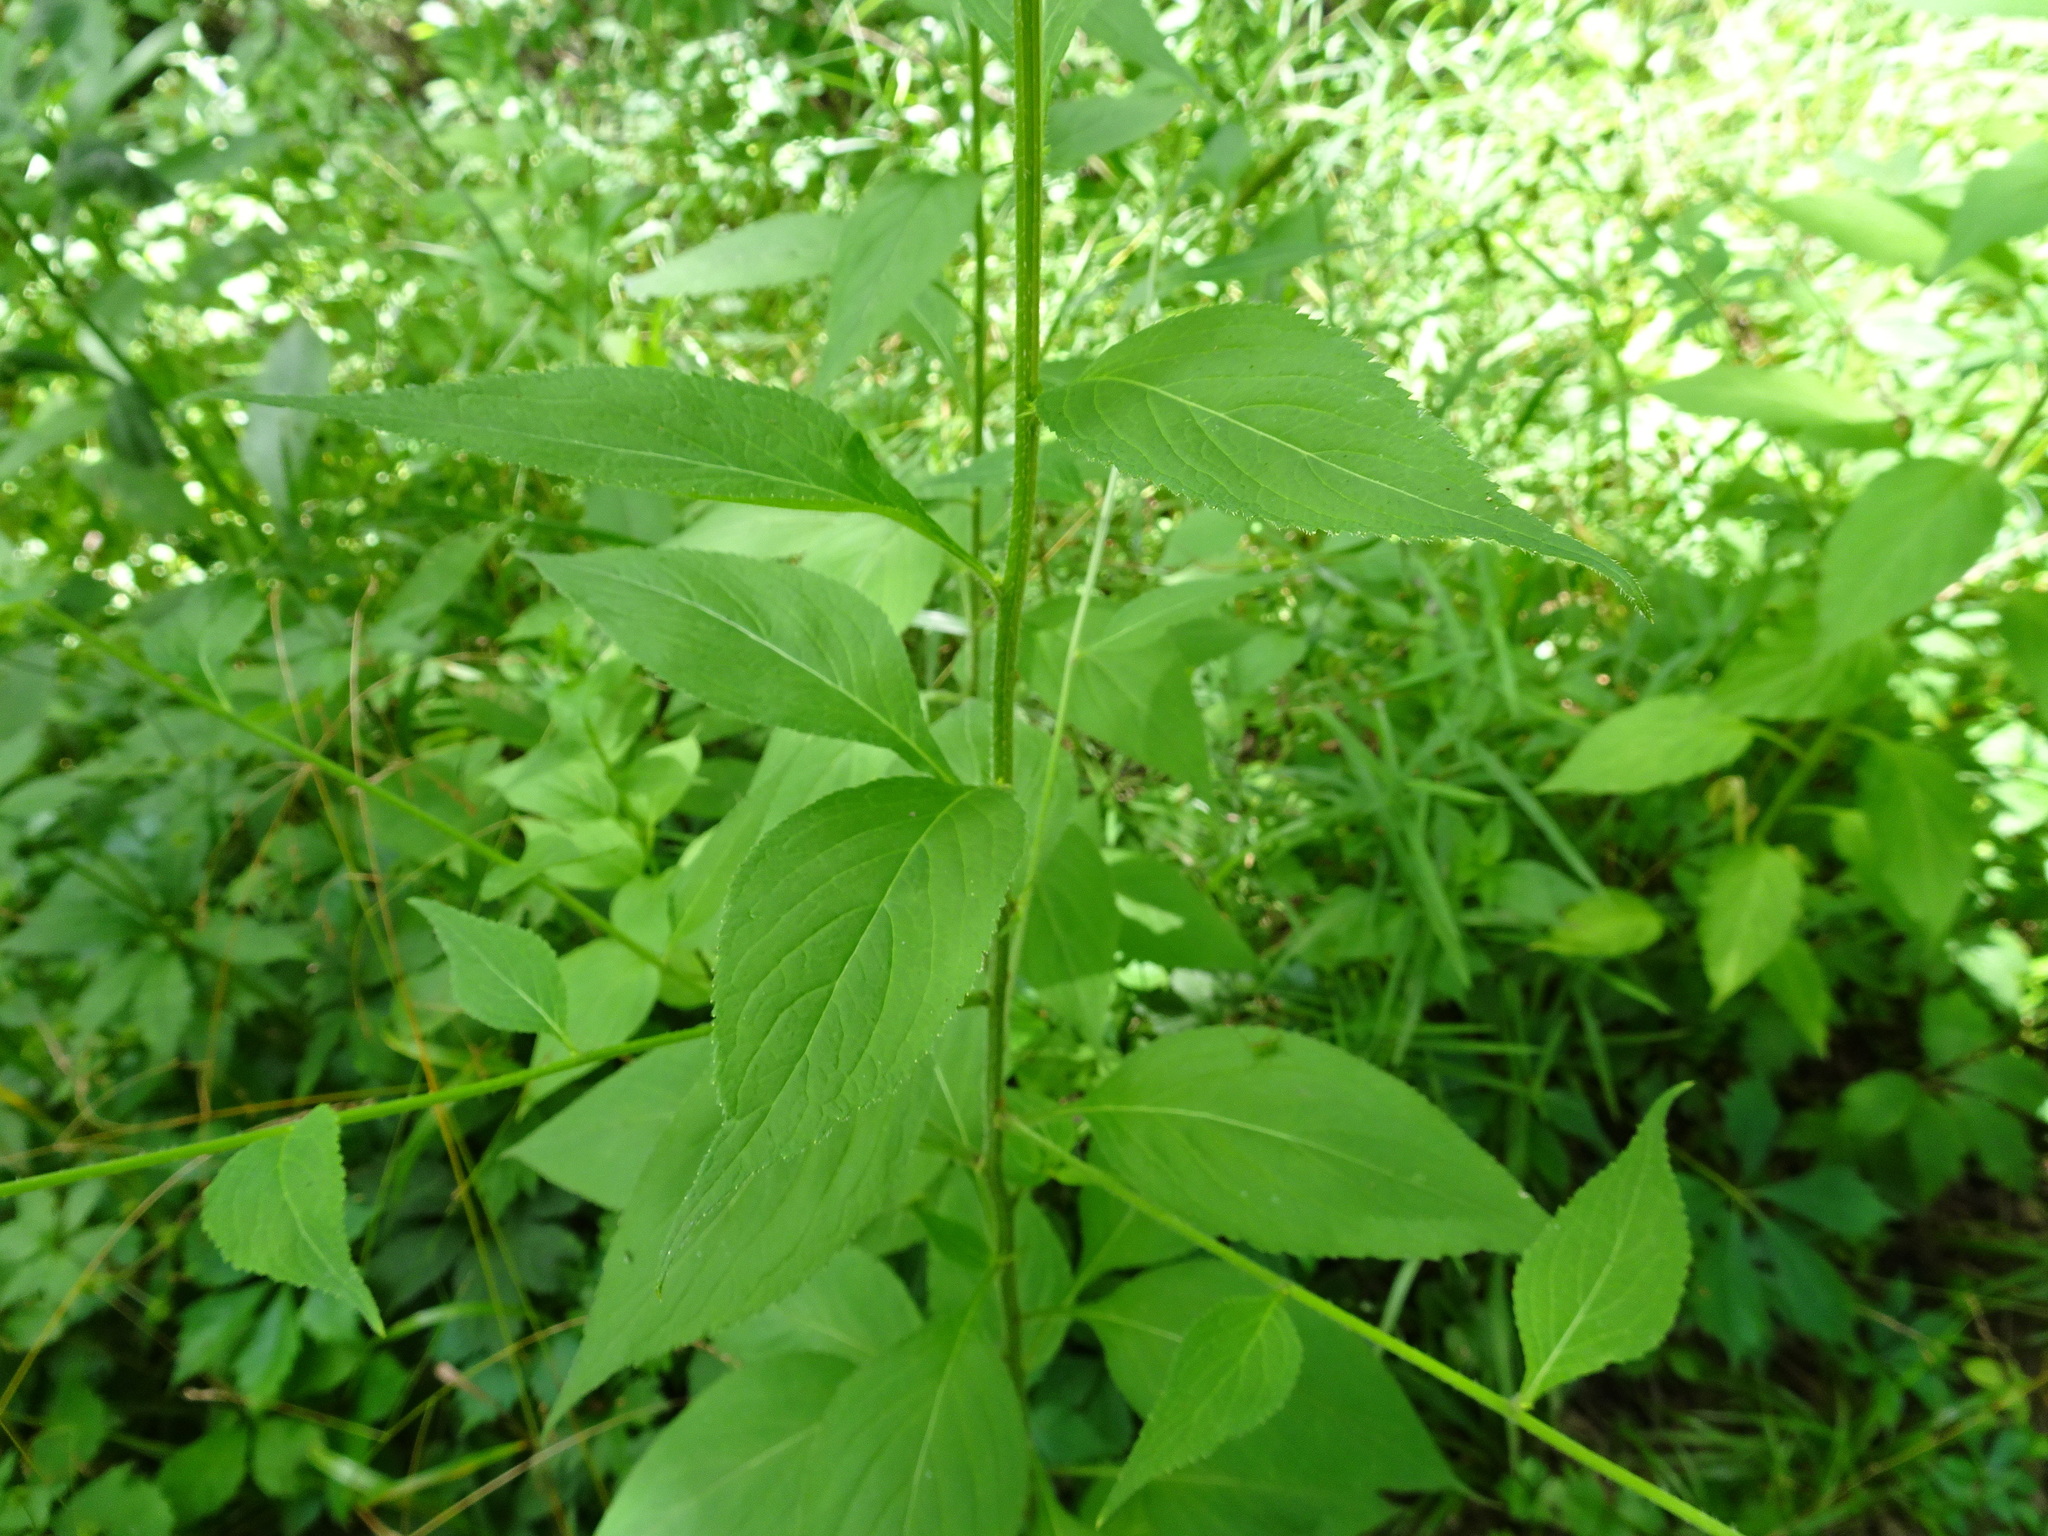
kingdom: Plantae
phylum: Tracheophyta
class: Magnoliopsida
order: Asterales
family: Campanulaceae
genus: Campanulastrum
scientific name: Campanulastrum americanum
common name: American bellflower
